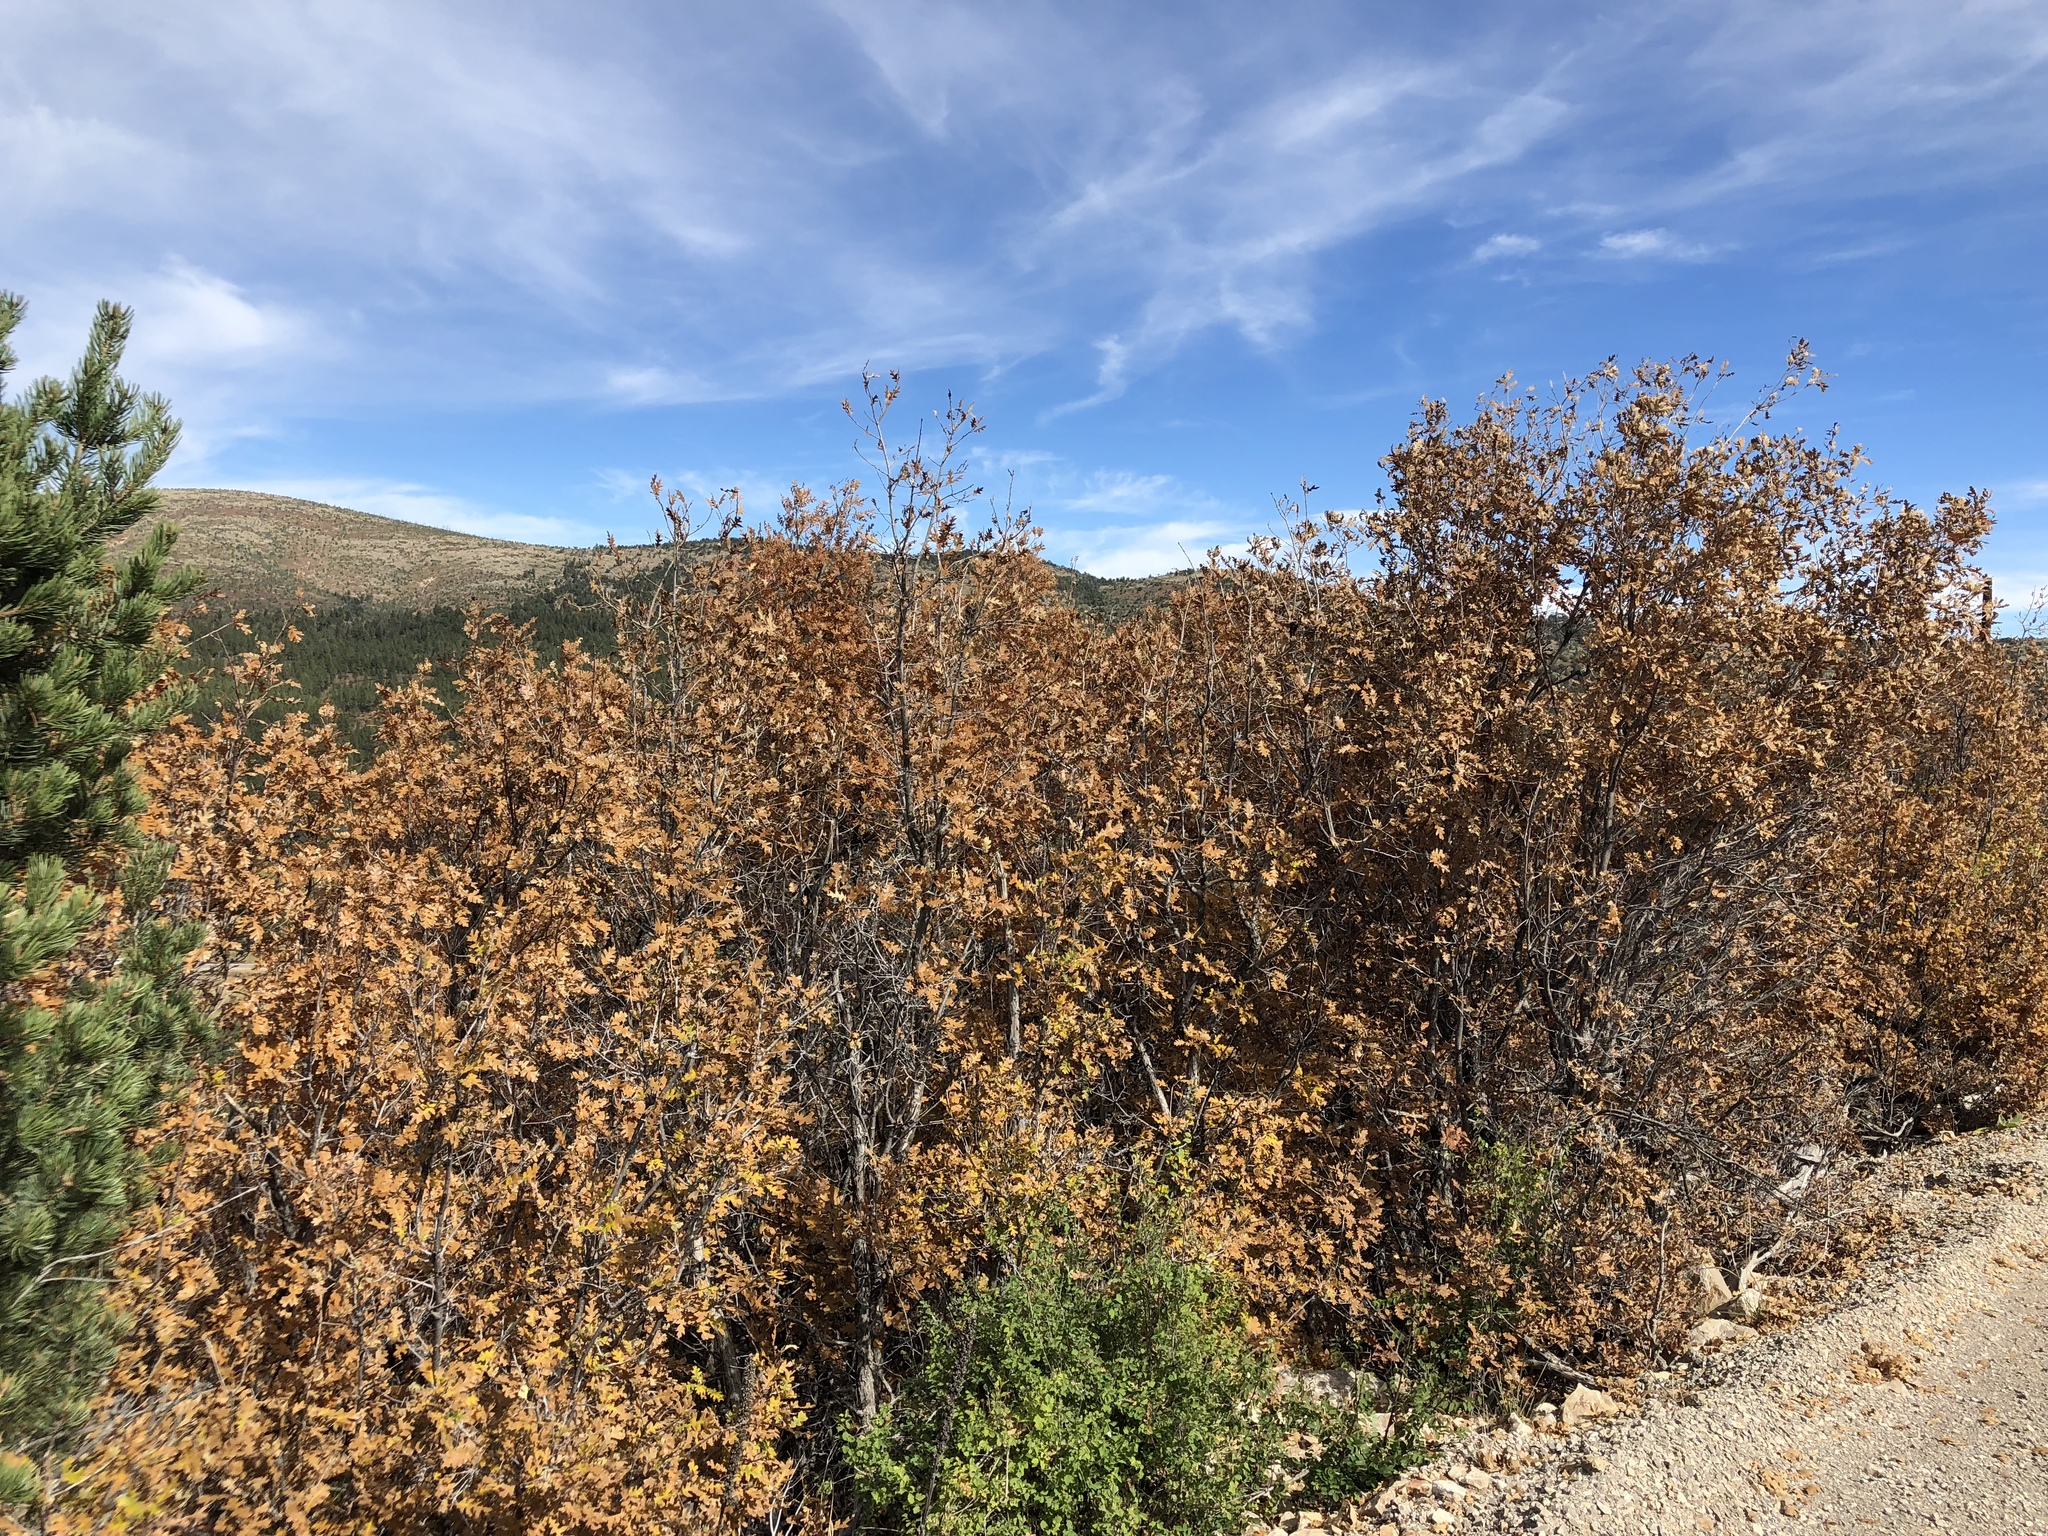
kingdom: Plantae
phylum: Tracheophyta
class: Magnoliopsida
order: Fagales
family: Fagaceae
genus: Quercus
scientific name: Quercus gambelii
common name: Gambel oak
